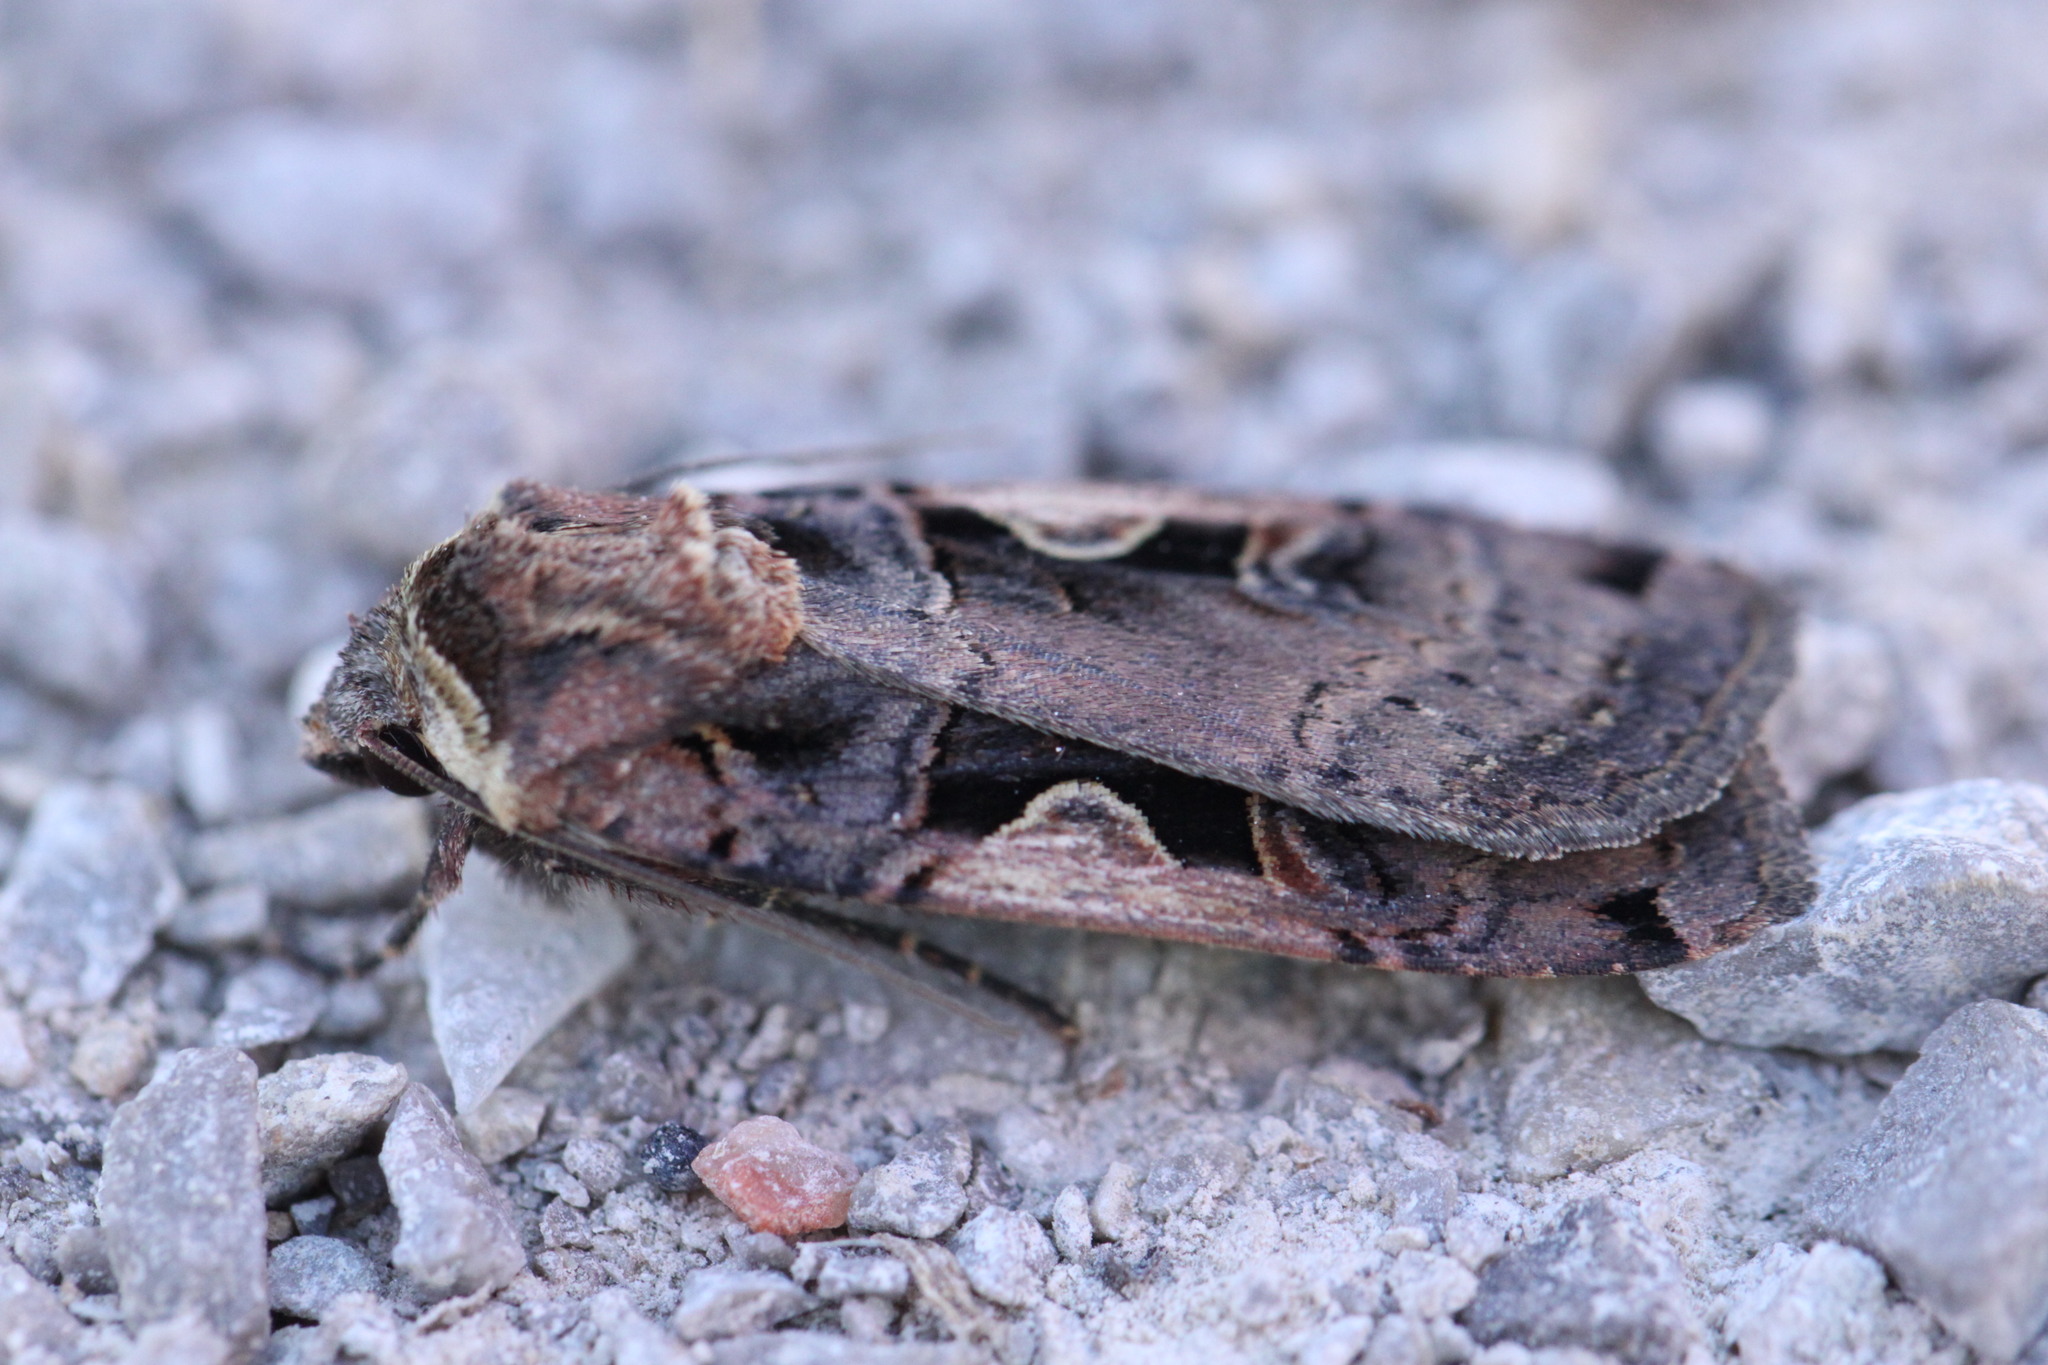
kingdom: Animalia
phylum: Arthropoda
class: Insecta
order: Lepidoptera
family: Noctuidae
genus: Xestia
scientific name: Xestia c-nigrum
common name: Setaceous hebrew character
